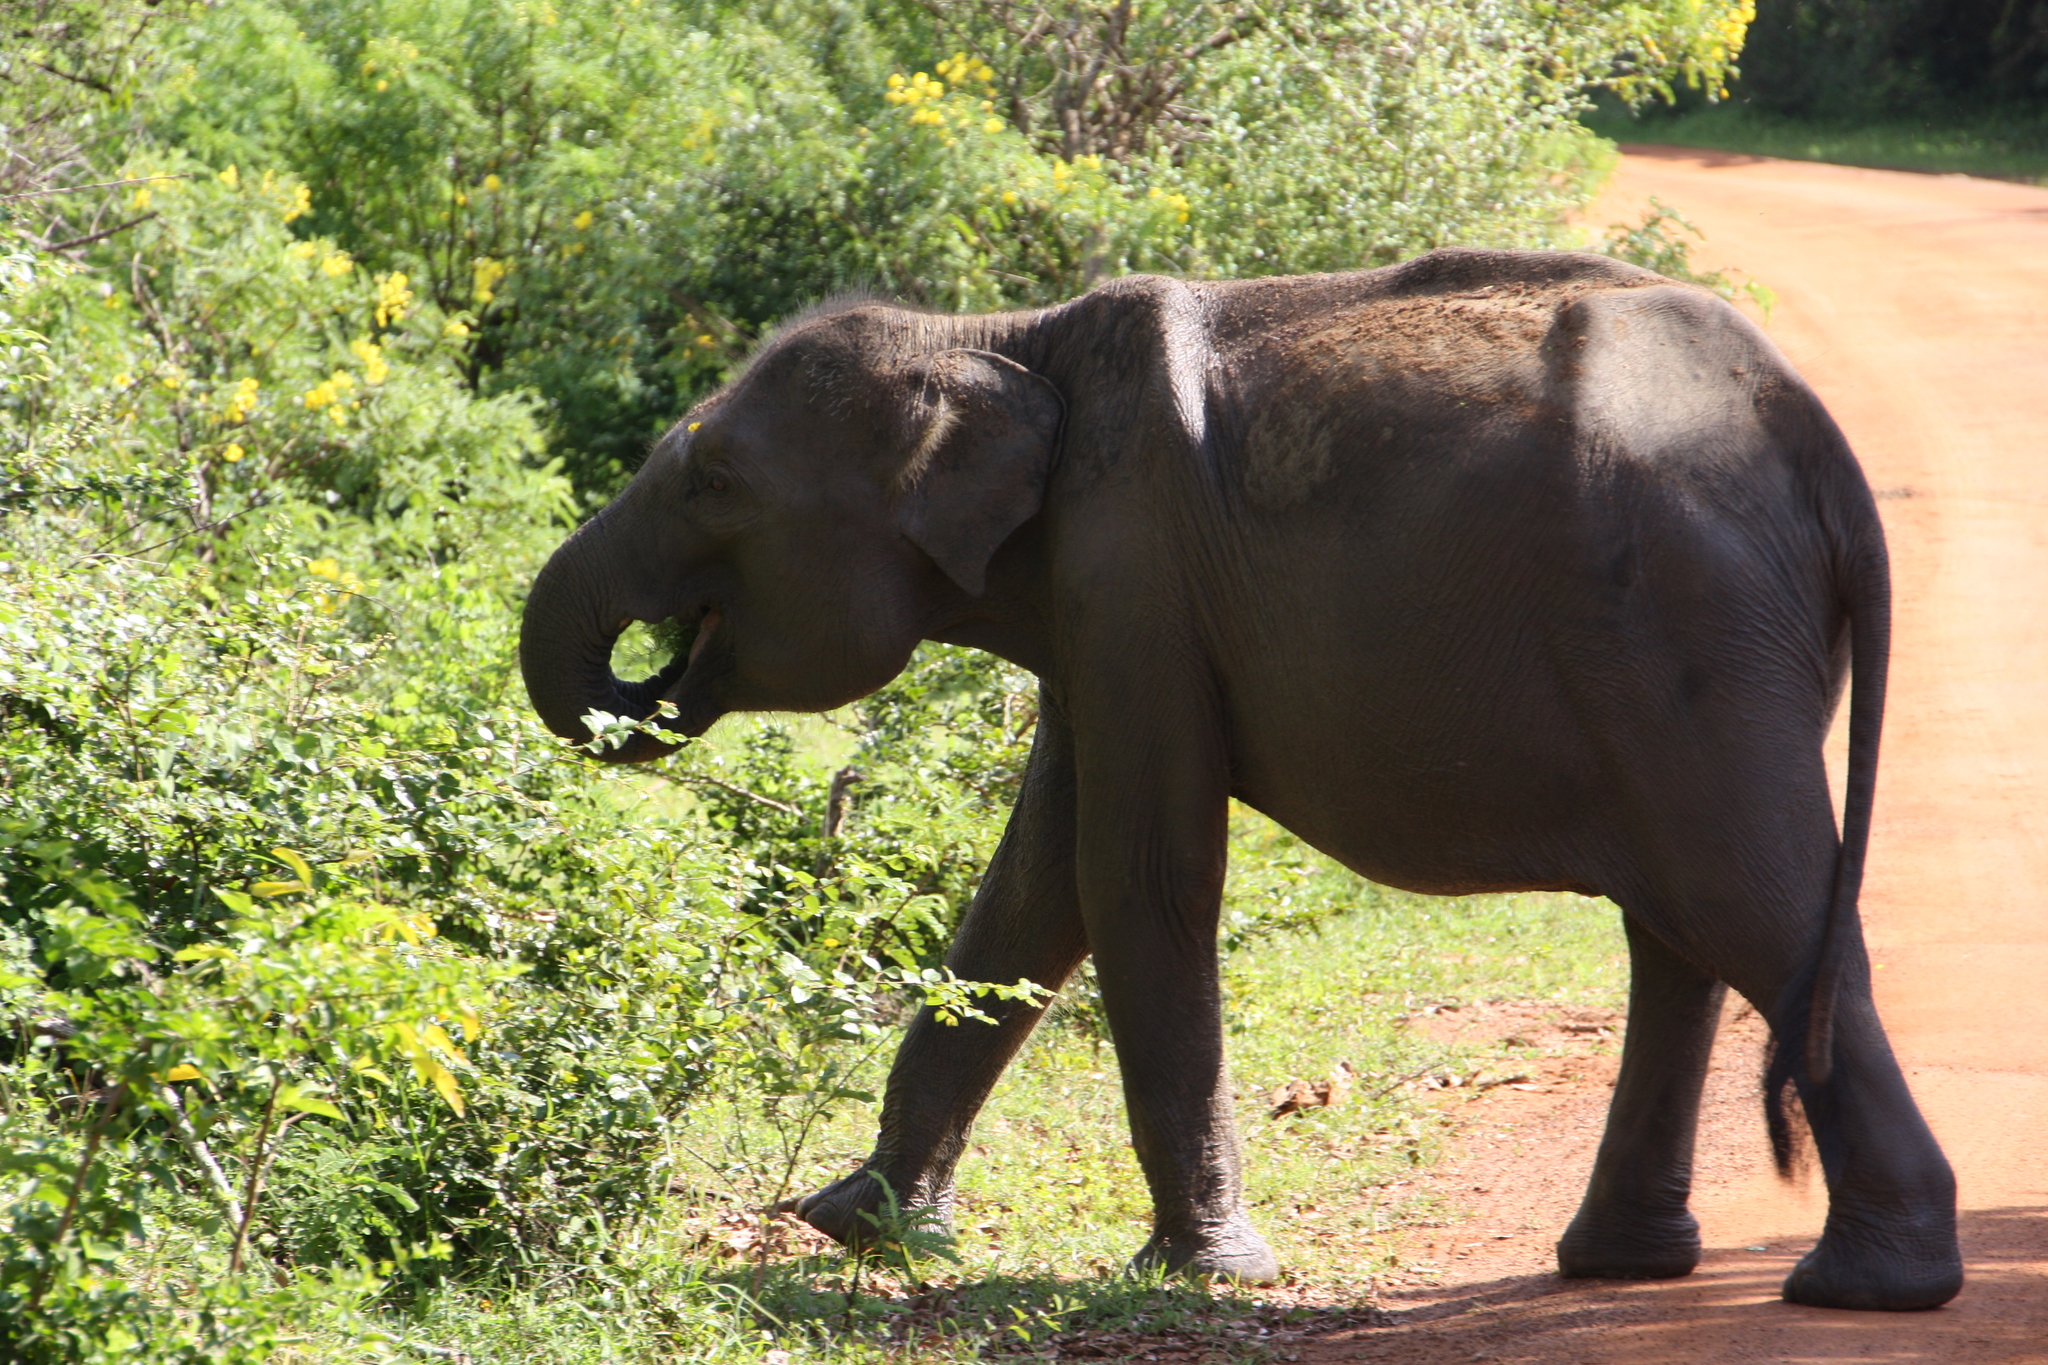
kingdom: Animalia
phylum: Chordata
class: Mammalia
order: Proboscidea
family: Elephantidae
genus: Elephas
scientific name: Elephas maximus
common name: Asian elephant
